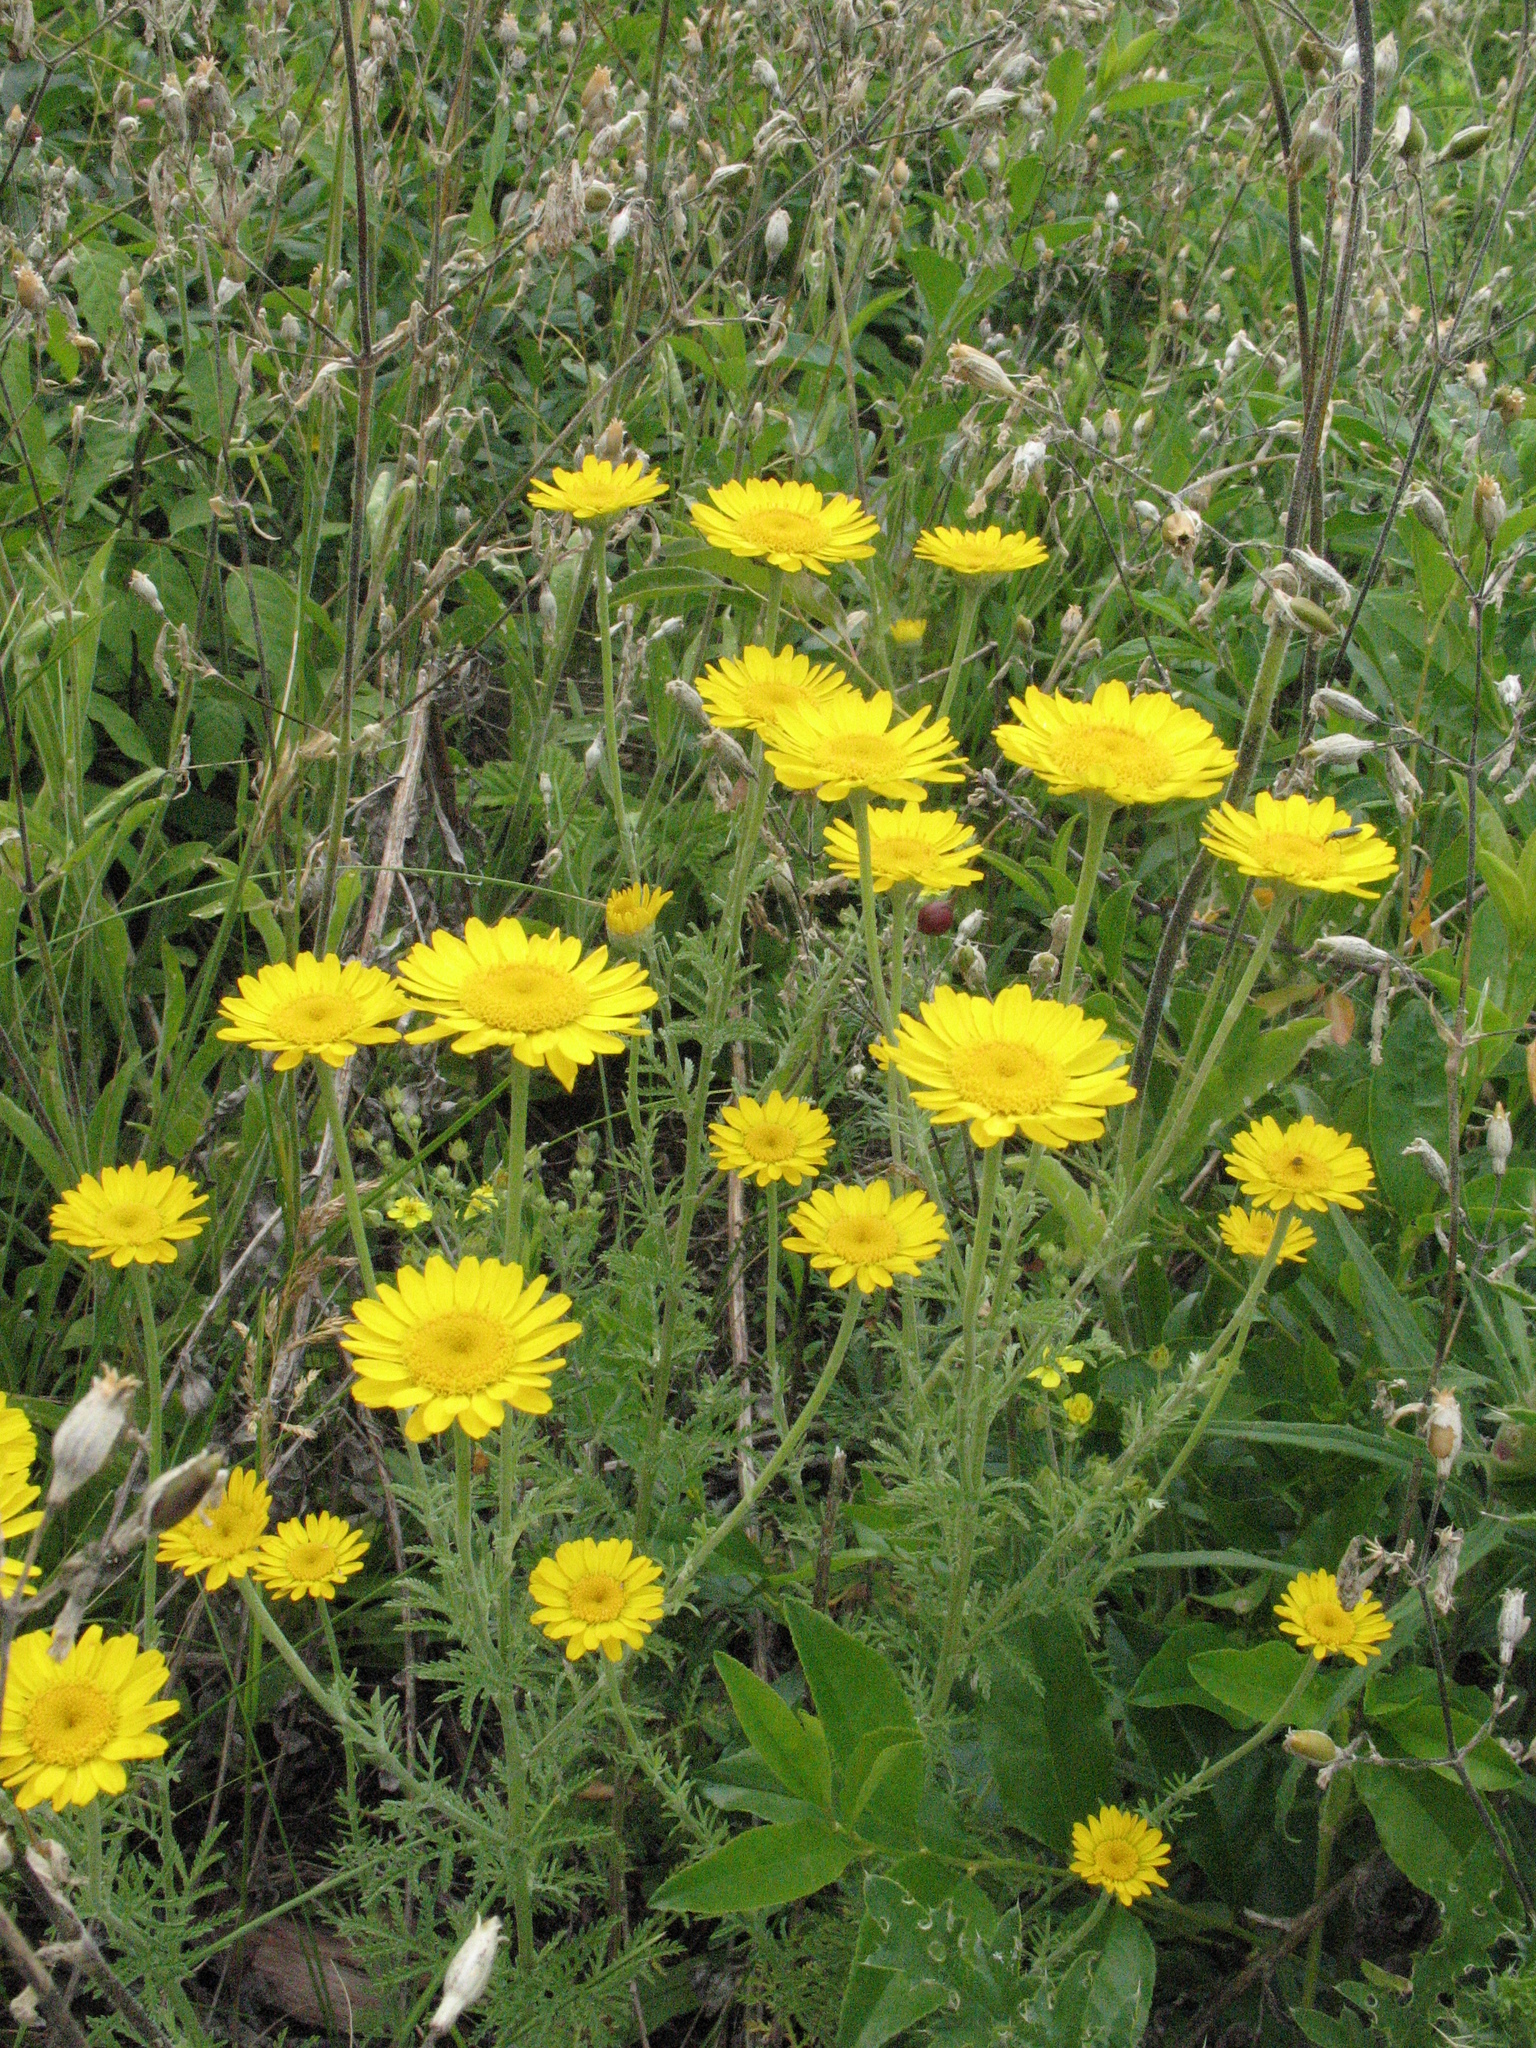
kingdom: Plantae
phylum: Tracheophyta
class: Magnoliopsida
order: Asterales
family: Asteraceae
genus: Cota
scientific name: Cota tinctoria
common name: Golden chamomile
